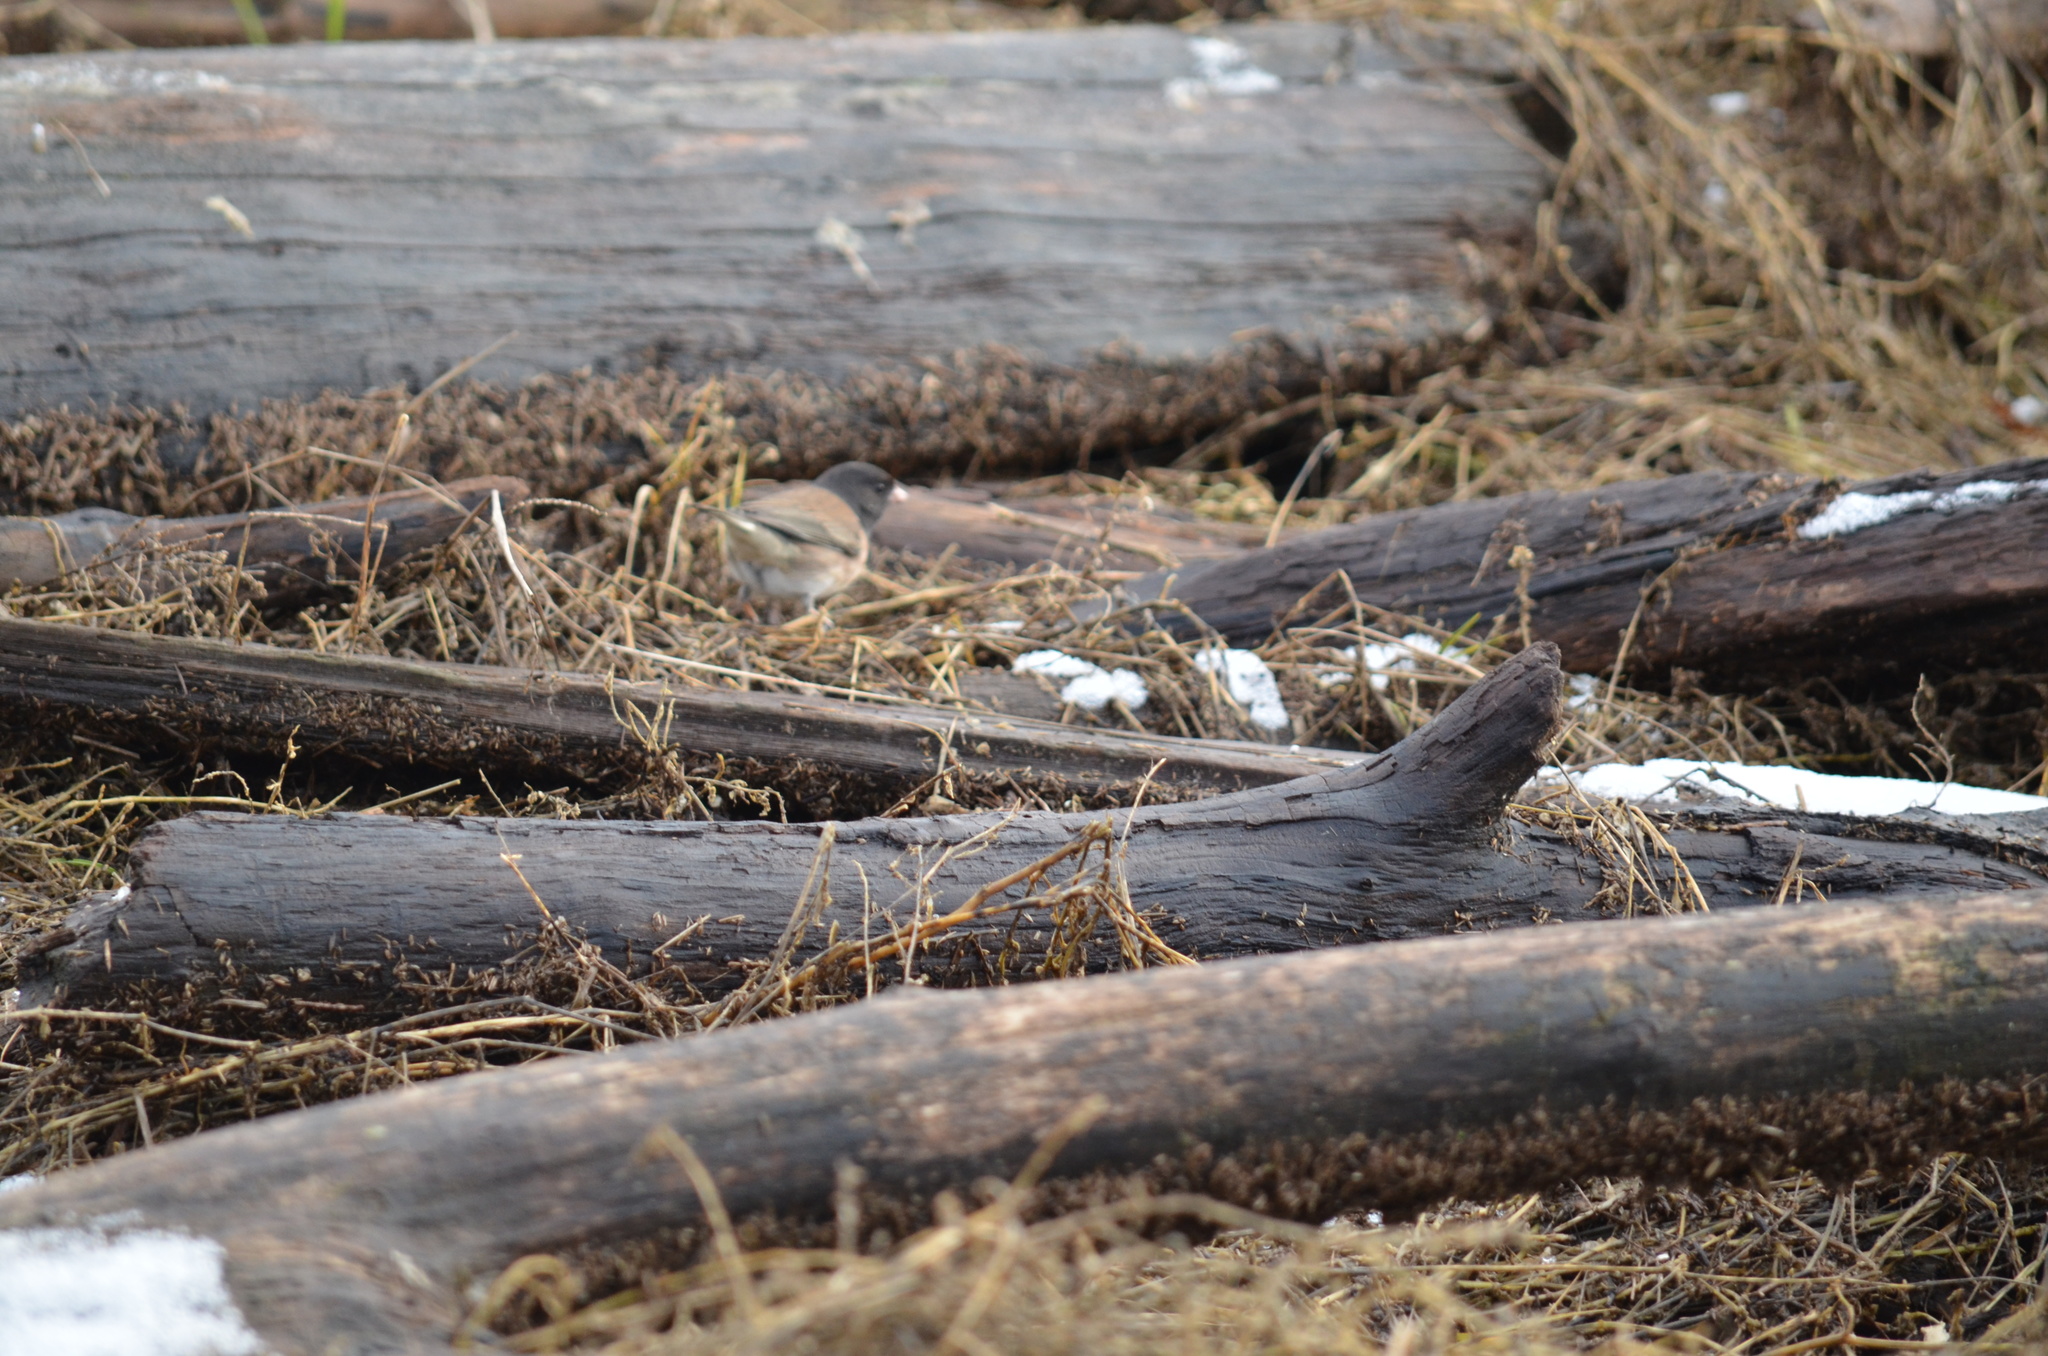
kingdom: Animalia
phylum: Chordata
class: Aves
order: Passeriformes
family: Passerellidae
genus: Junco
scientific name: Junco hyemalis
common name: Dark-eyed junco
